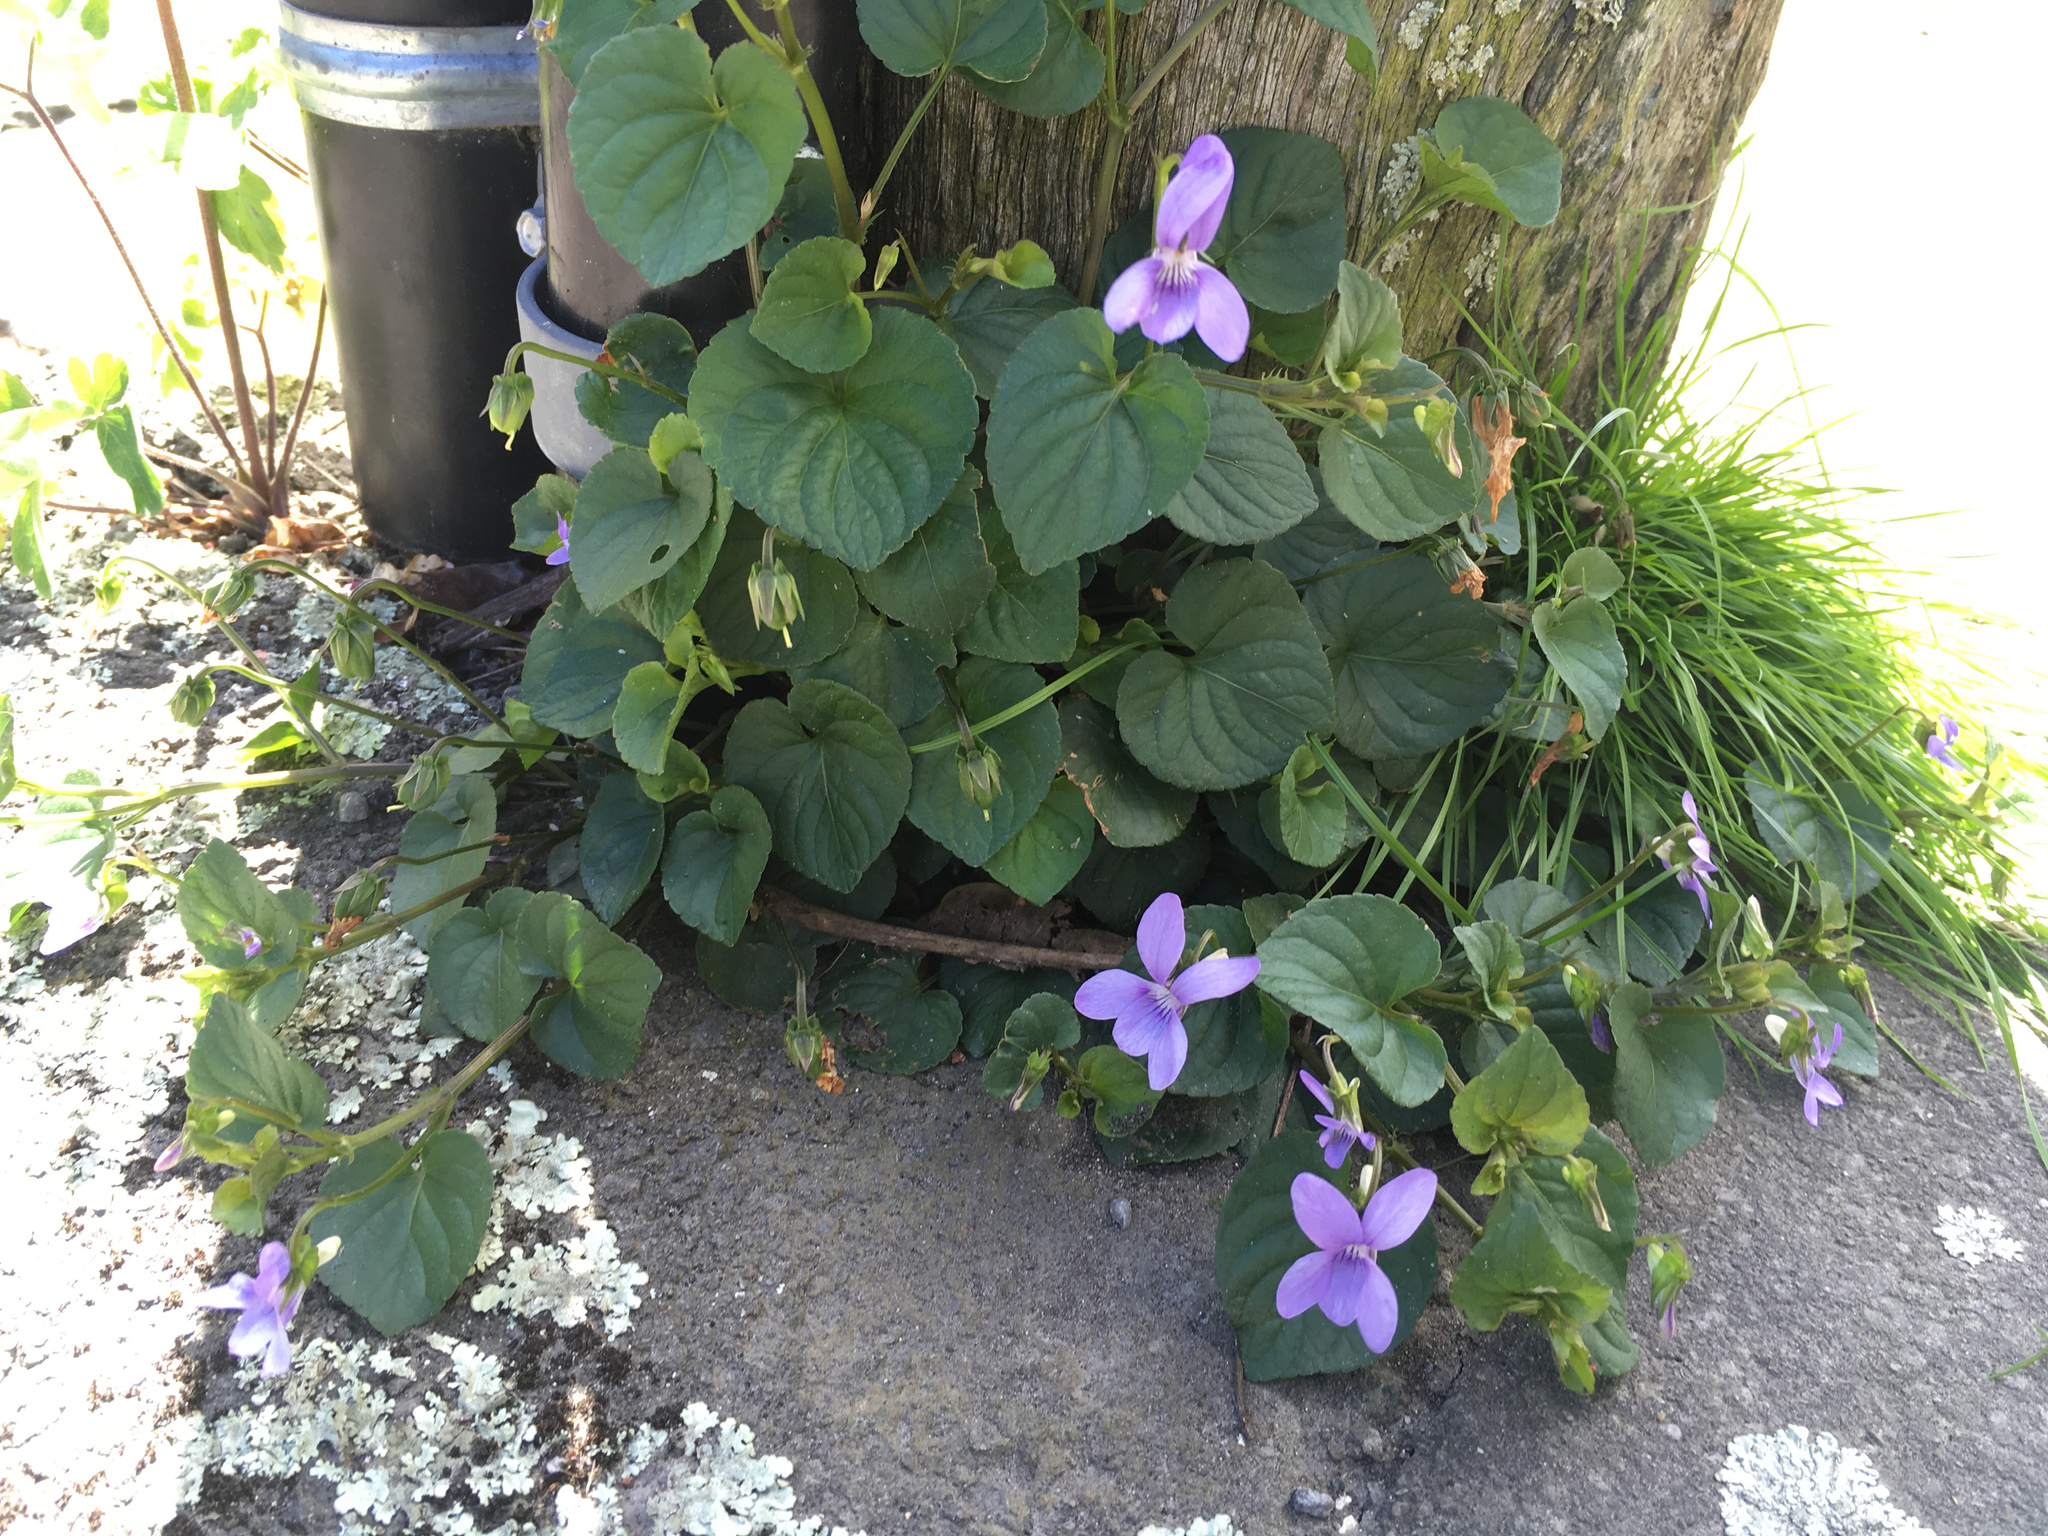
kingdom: Plantae
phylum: Tracheophyta
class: Magnoliopsida
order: Malpighiales
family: Violaceae
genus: Viola
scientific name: Viola riviniana
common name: Common dog-violet
